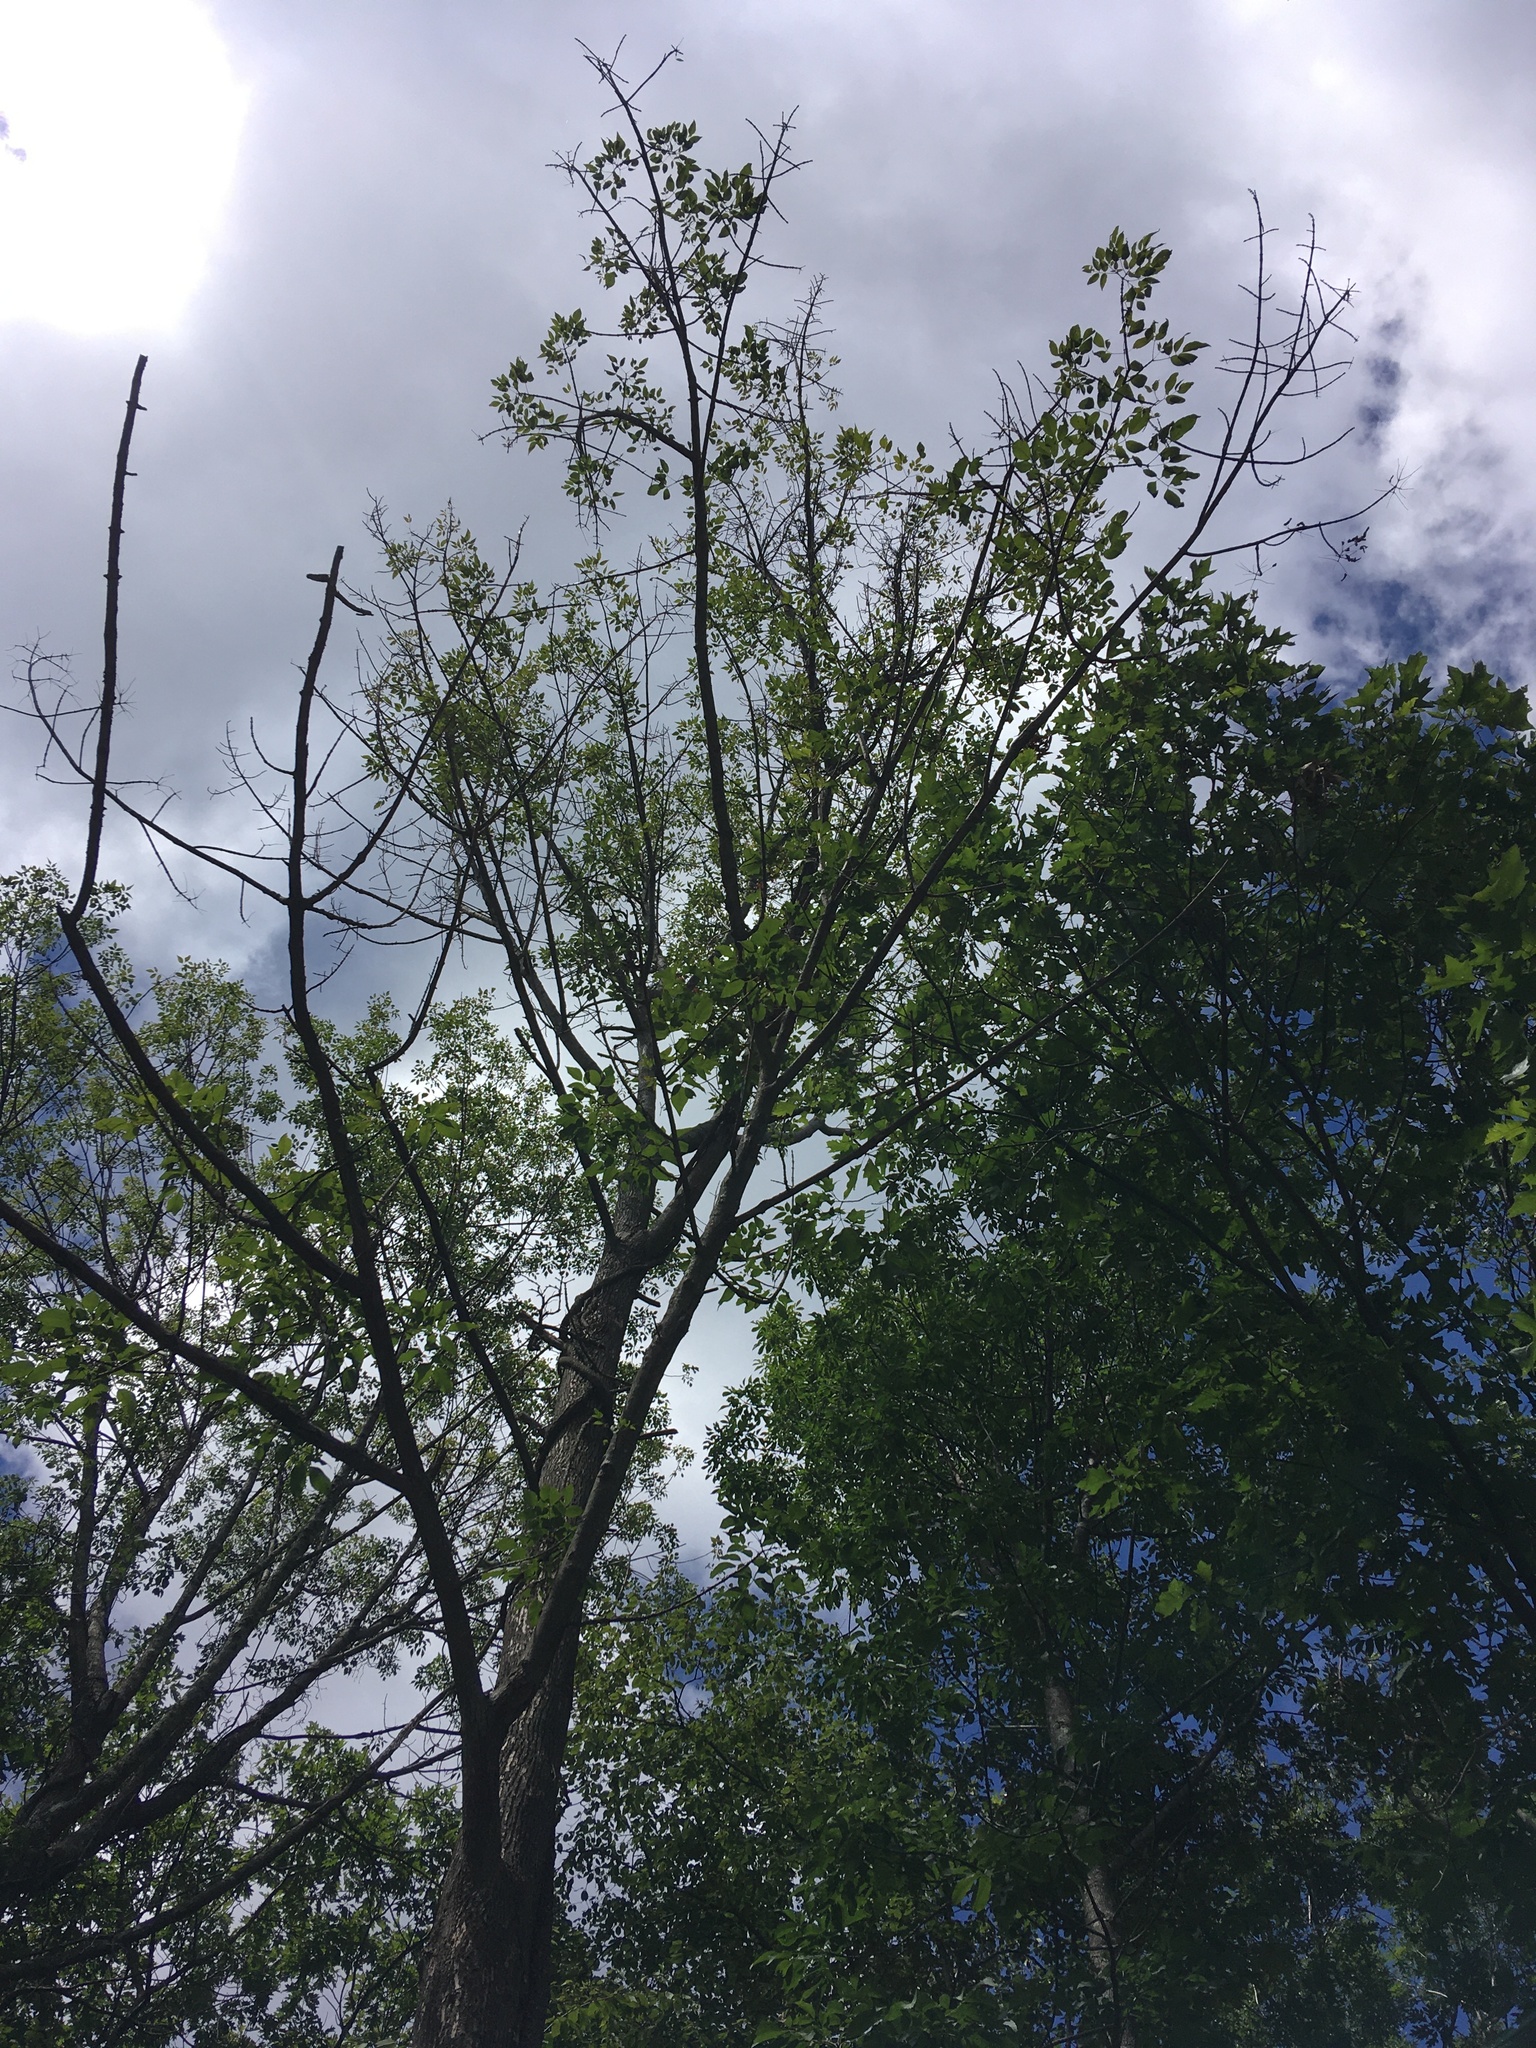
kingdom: Plantae
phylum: Tracheophyta
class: Magnoliopsida
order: Lamiales
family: Oleaceae
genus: Fraxinus
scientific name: Fraxinus americana
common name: White ash
